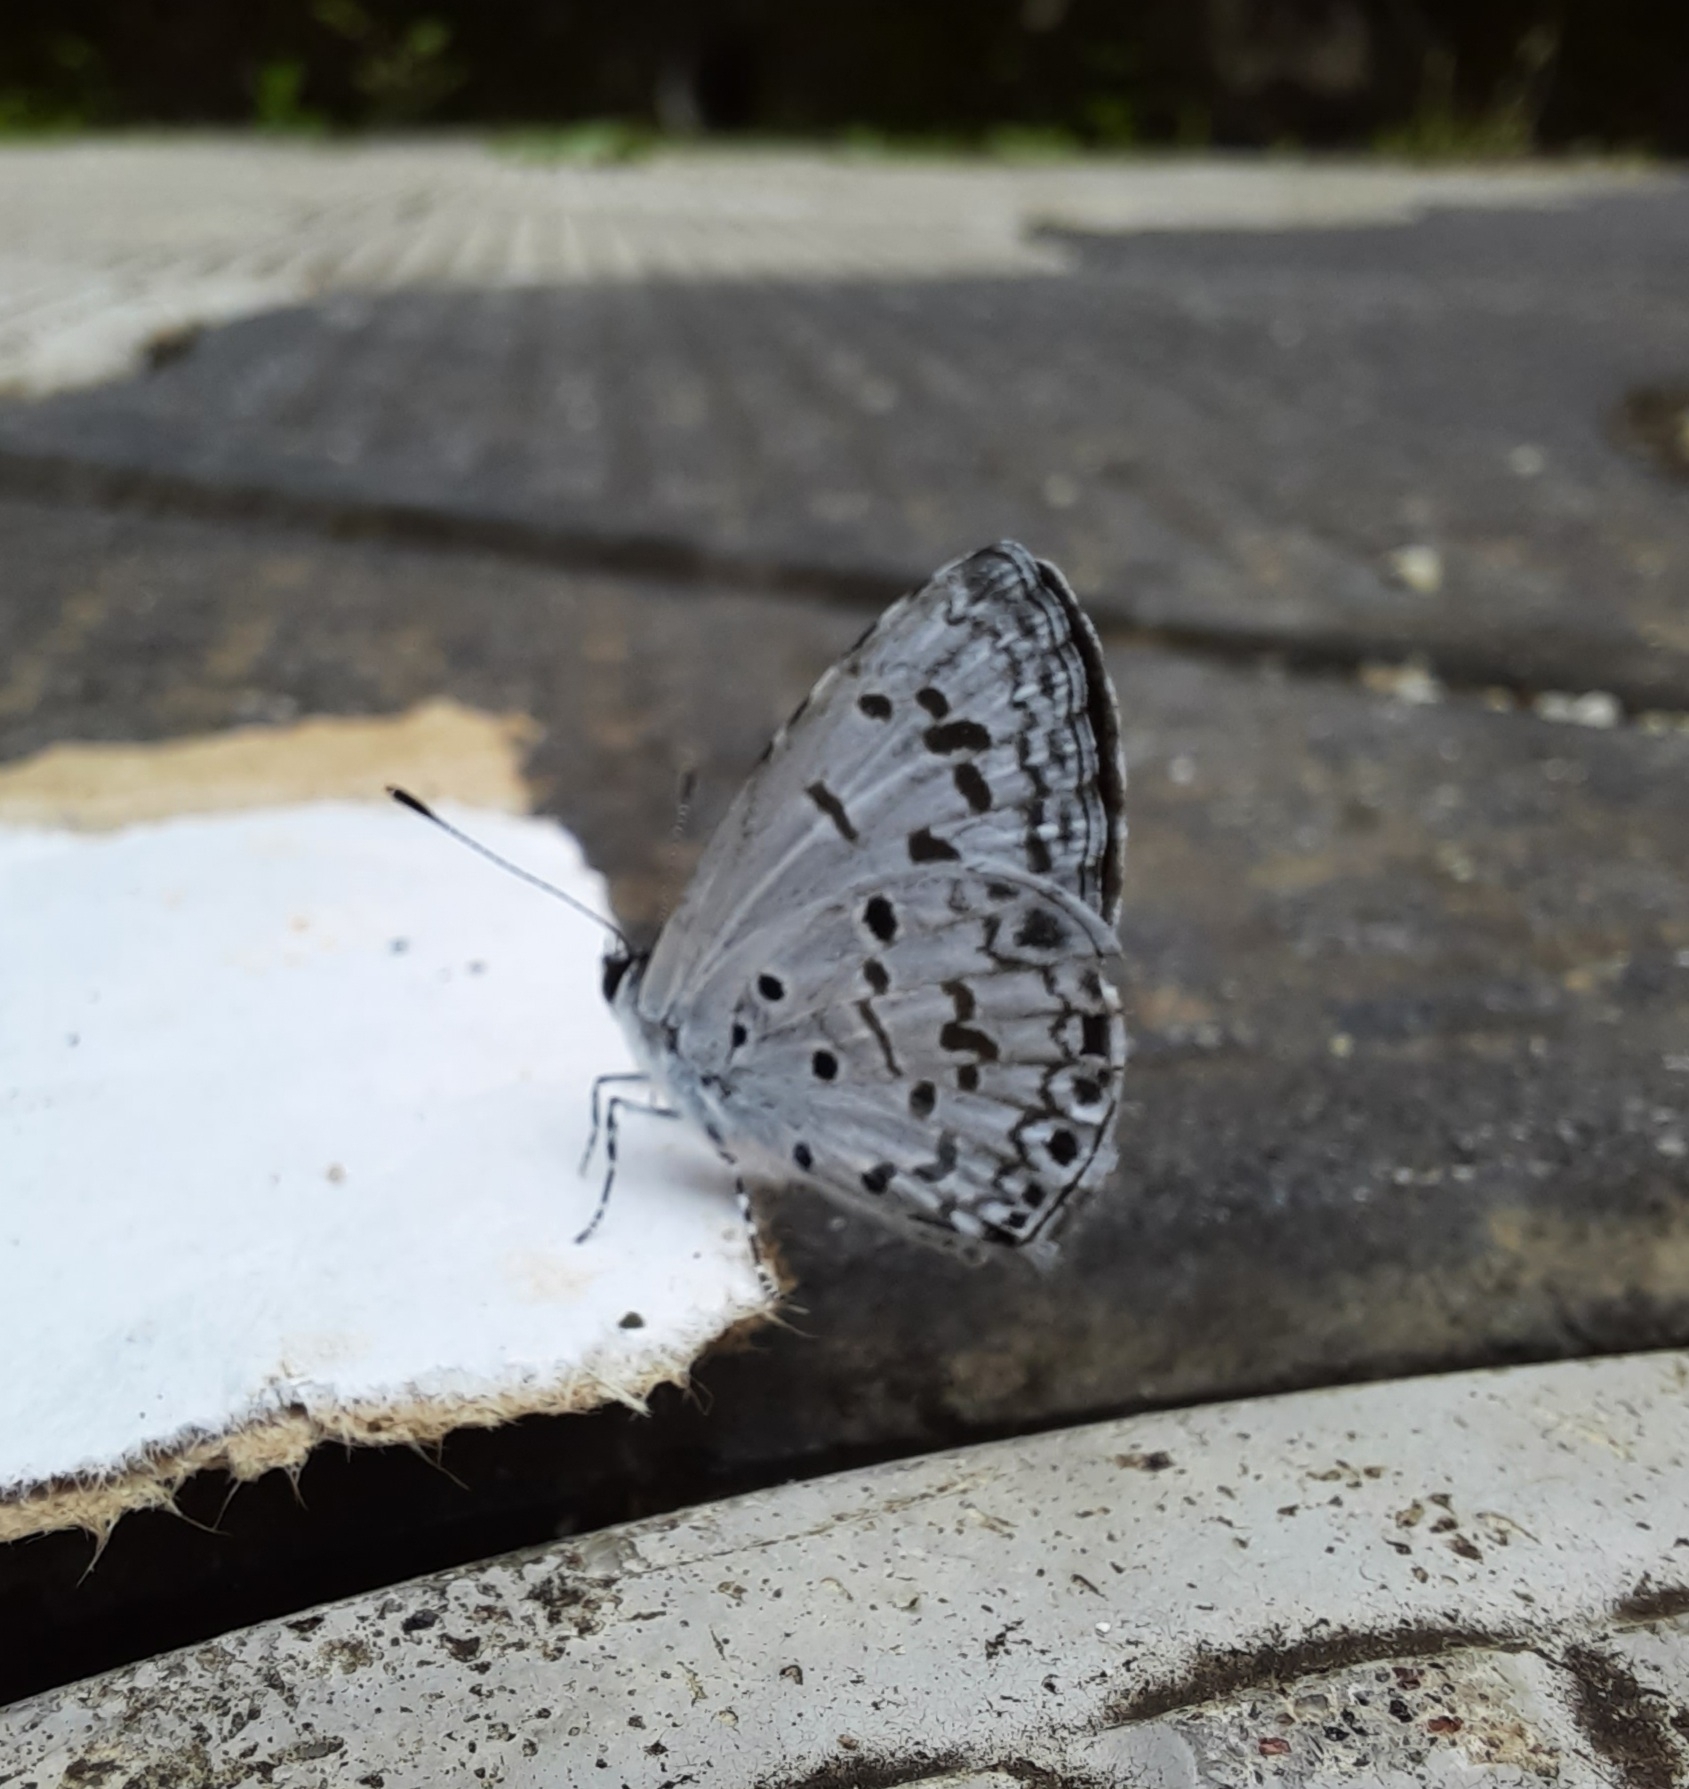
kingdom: Animalia
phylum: Arthropoda
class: Insecta
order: Lepidoptera
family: Lycaenidae
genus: Acytolepis
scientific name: Acytolepis puspa
